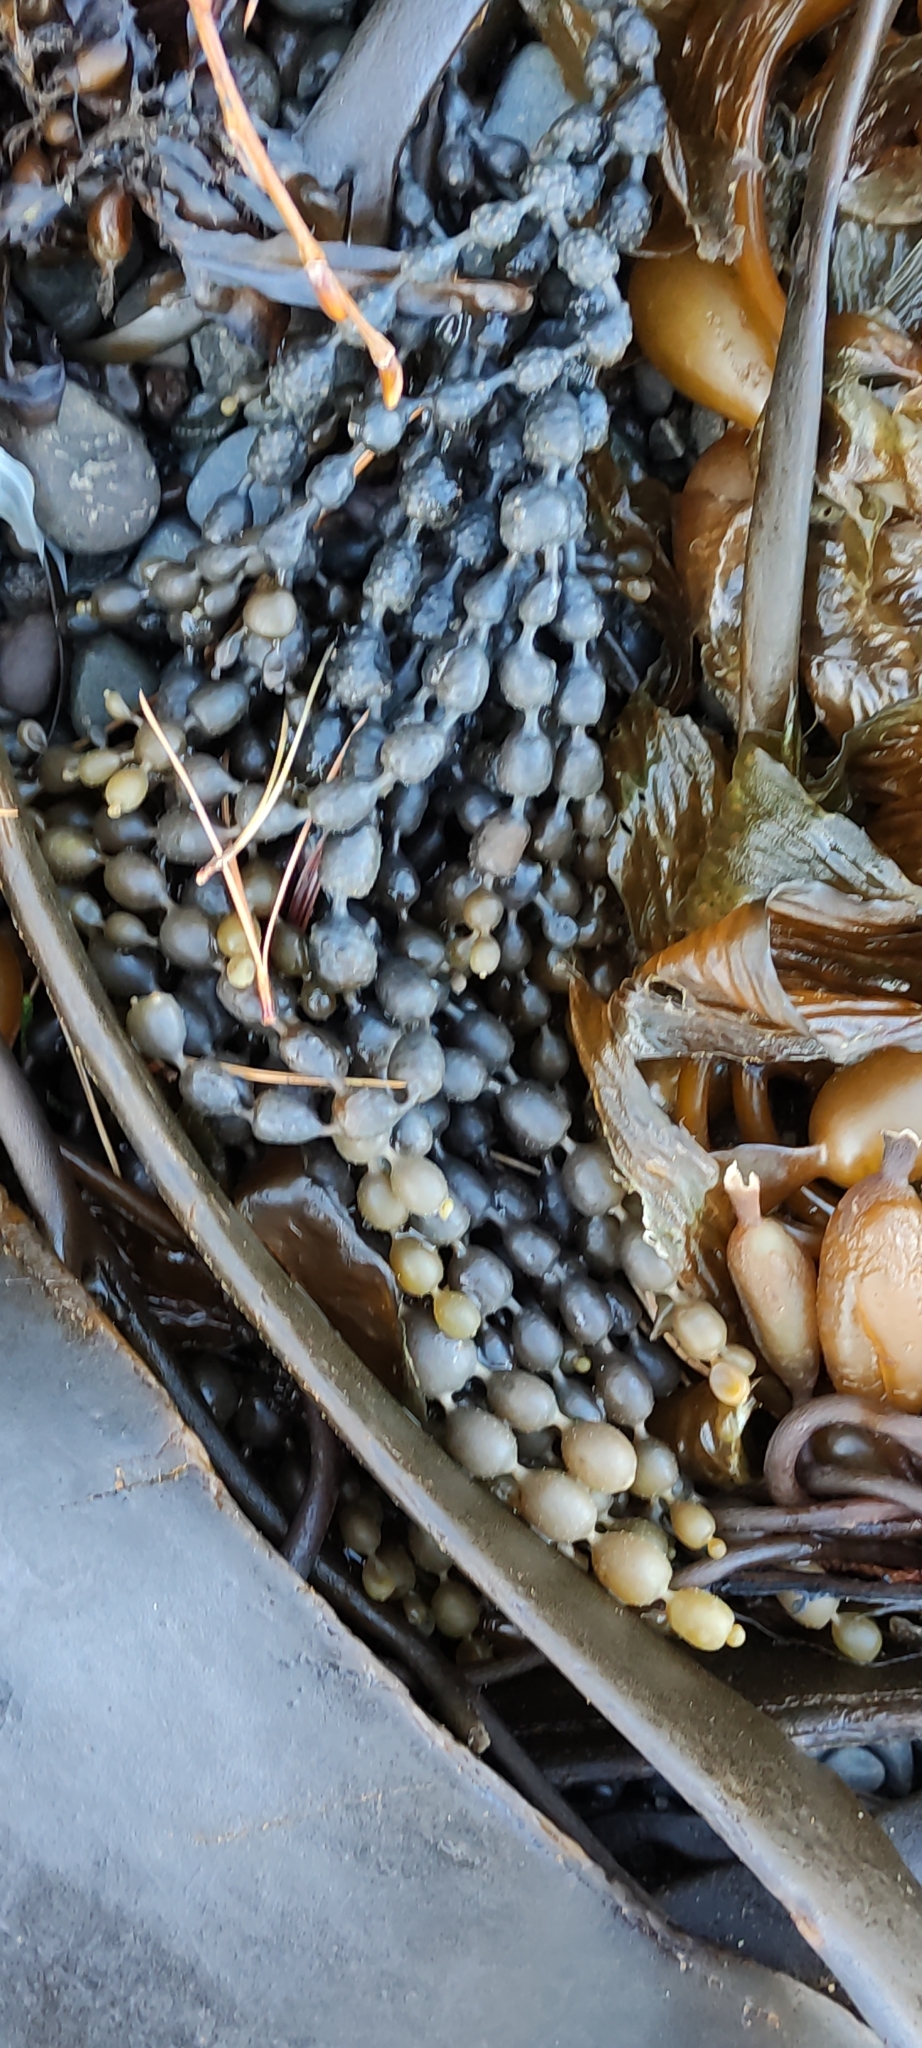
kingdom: Chromista
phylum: Ochrophyta
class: Phaeophyceae
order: Fucales
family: Hormosiraceae
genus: Hormosira
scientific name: Hormosira banksii
